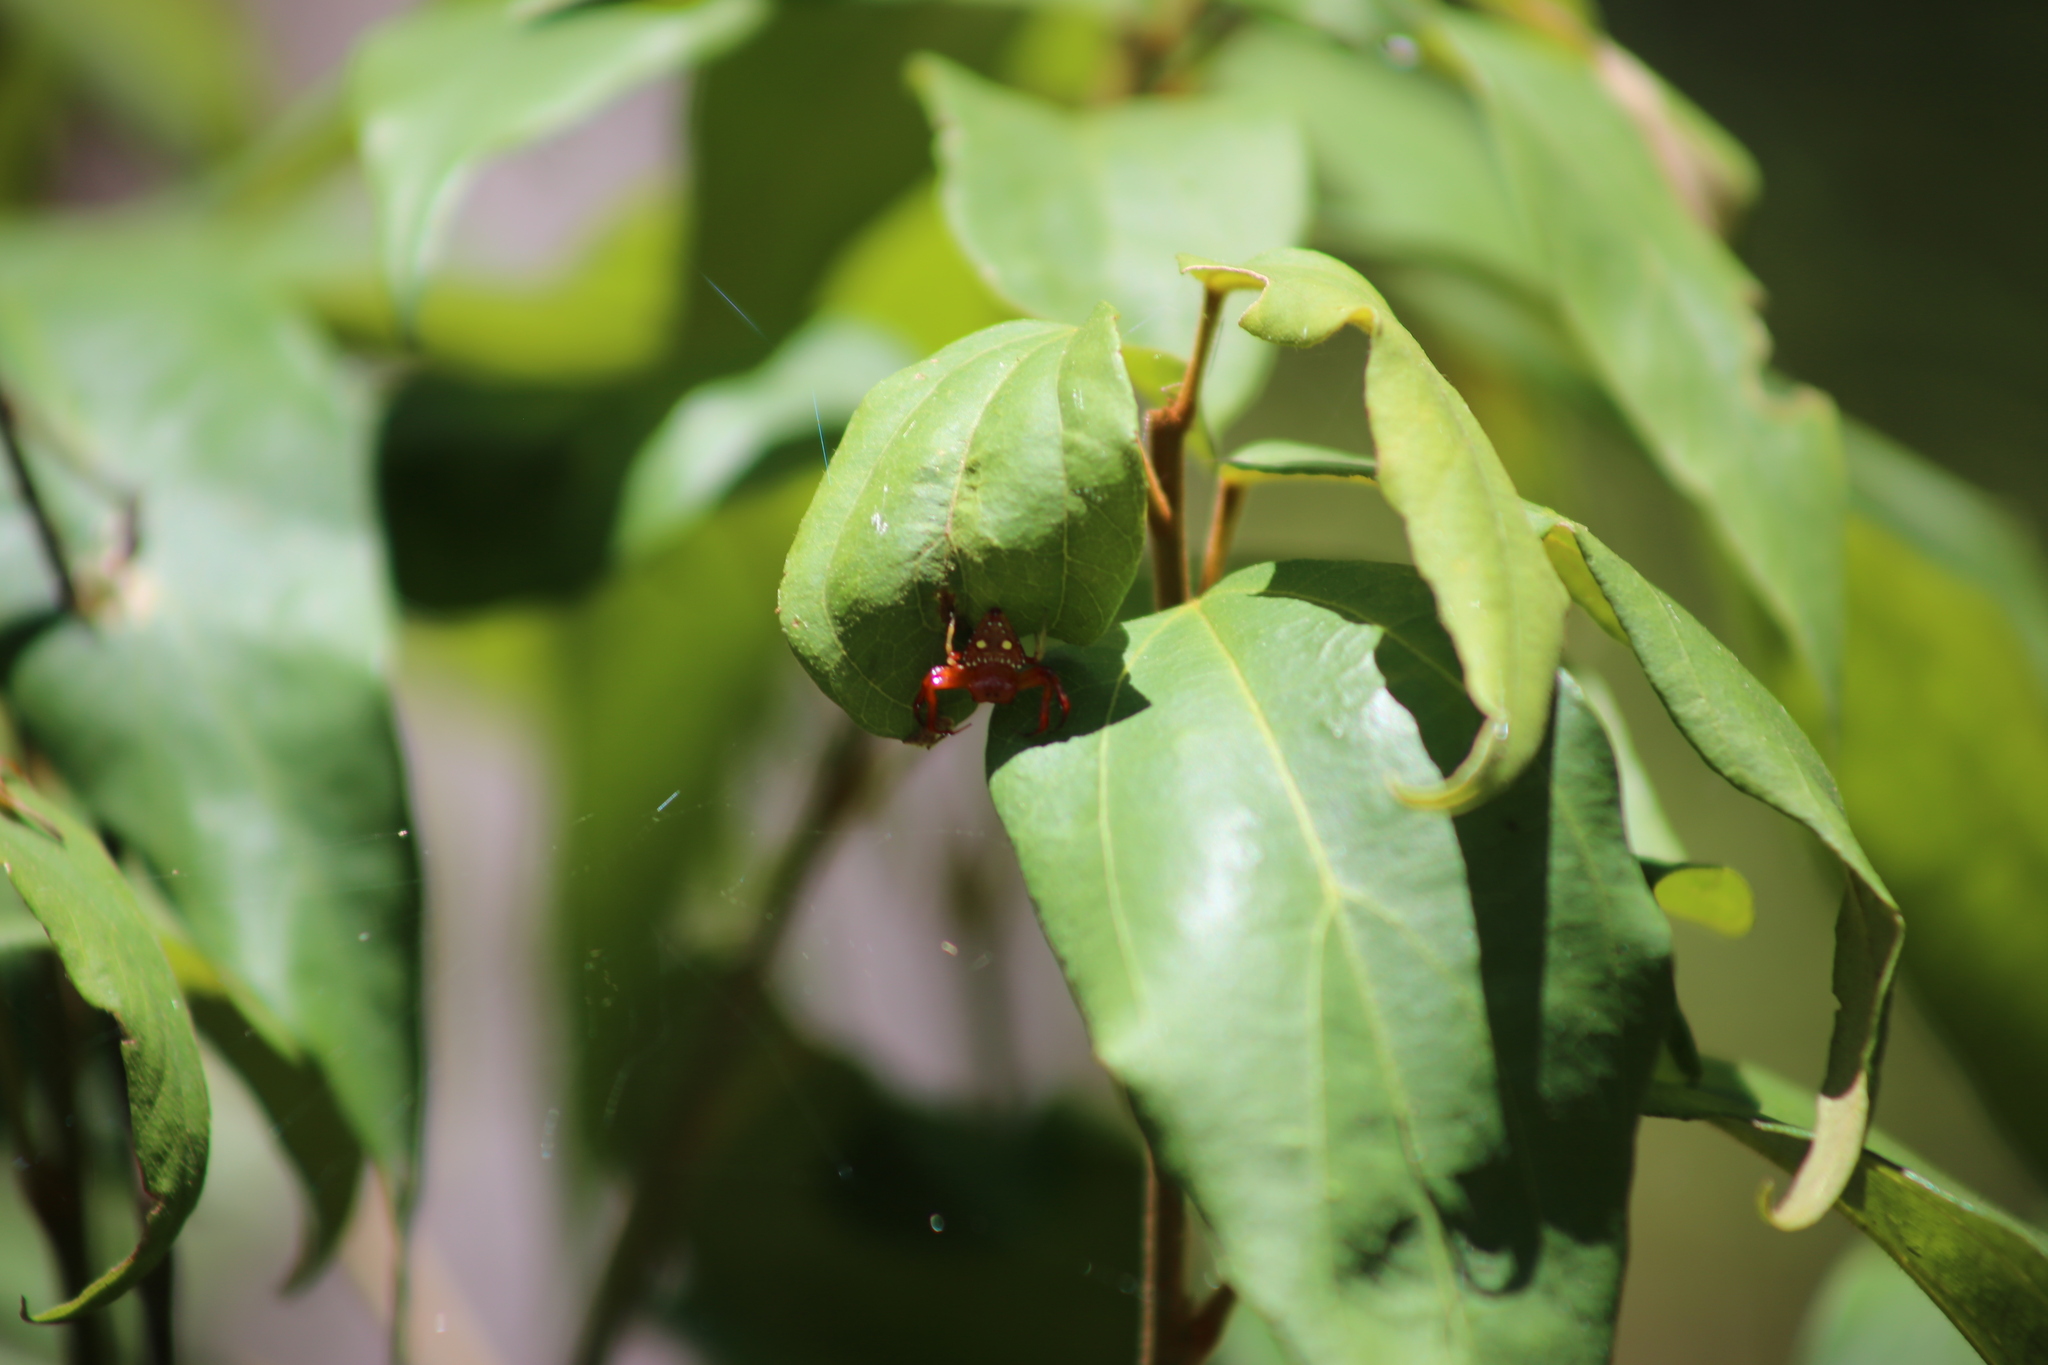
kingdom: Animalia
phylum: Arthropoda
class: Arachnida
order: Araneae
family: Arkyidae
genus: Arkys
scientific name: Arkys lancearius
